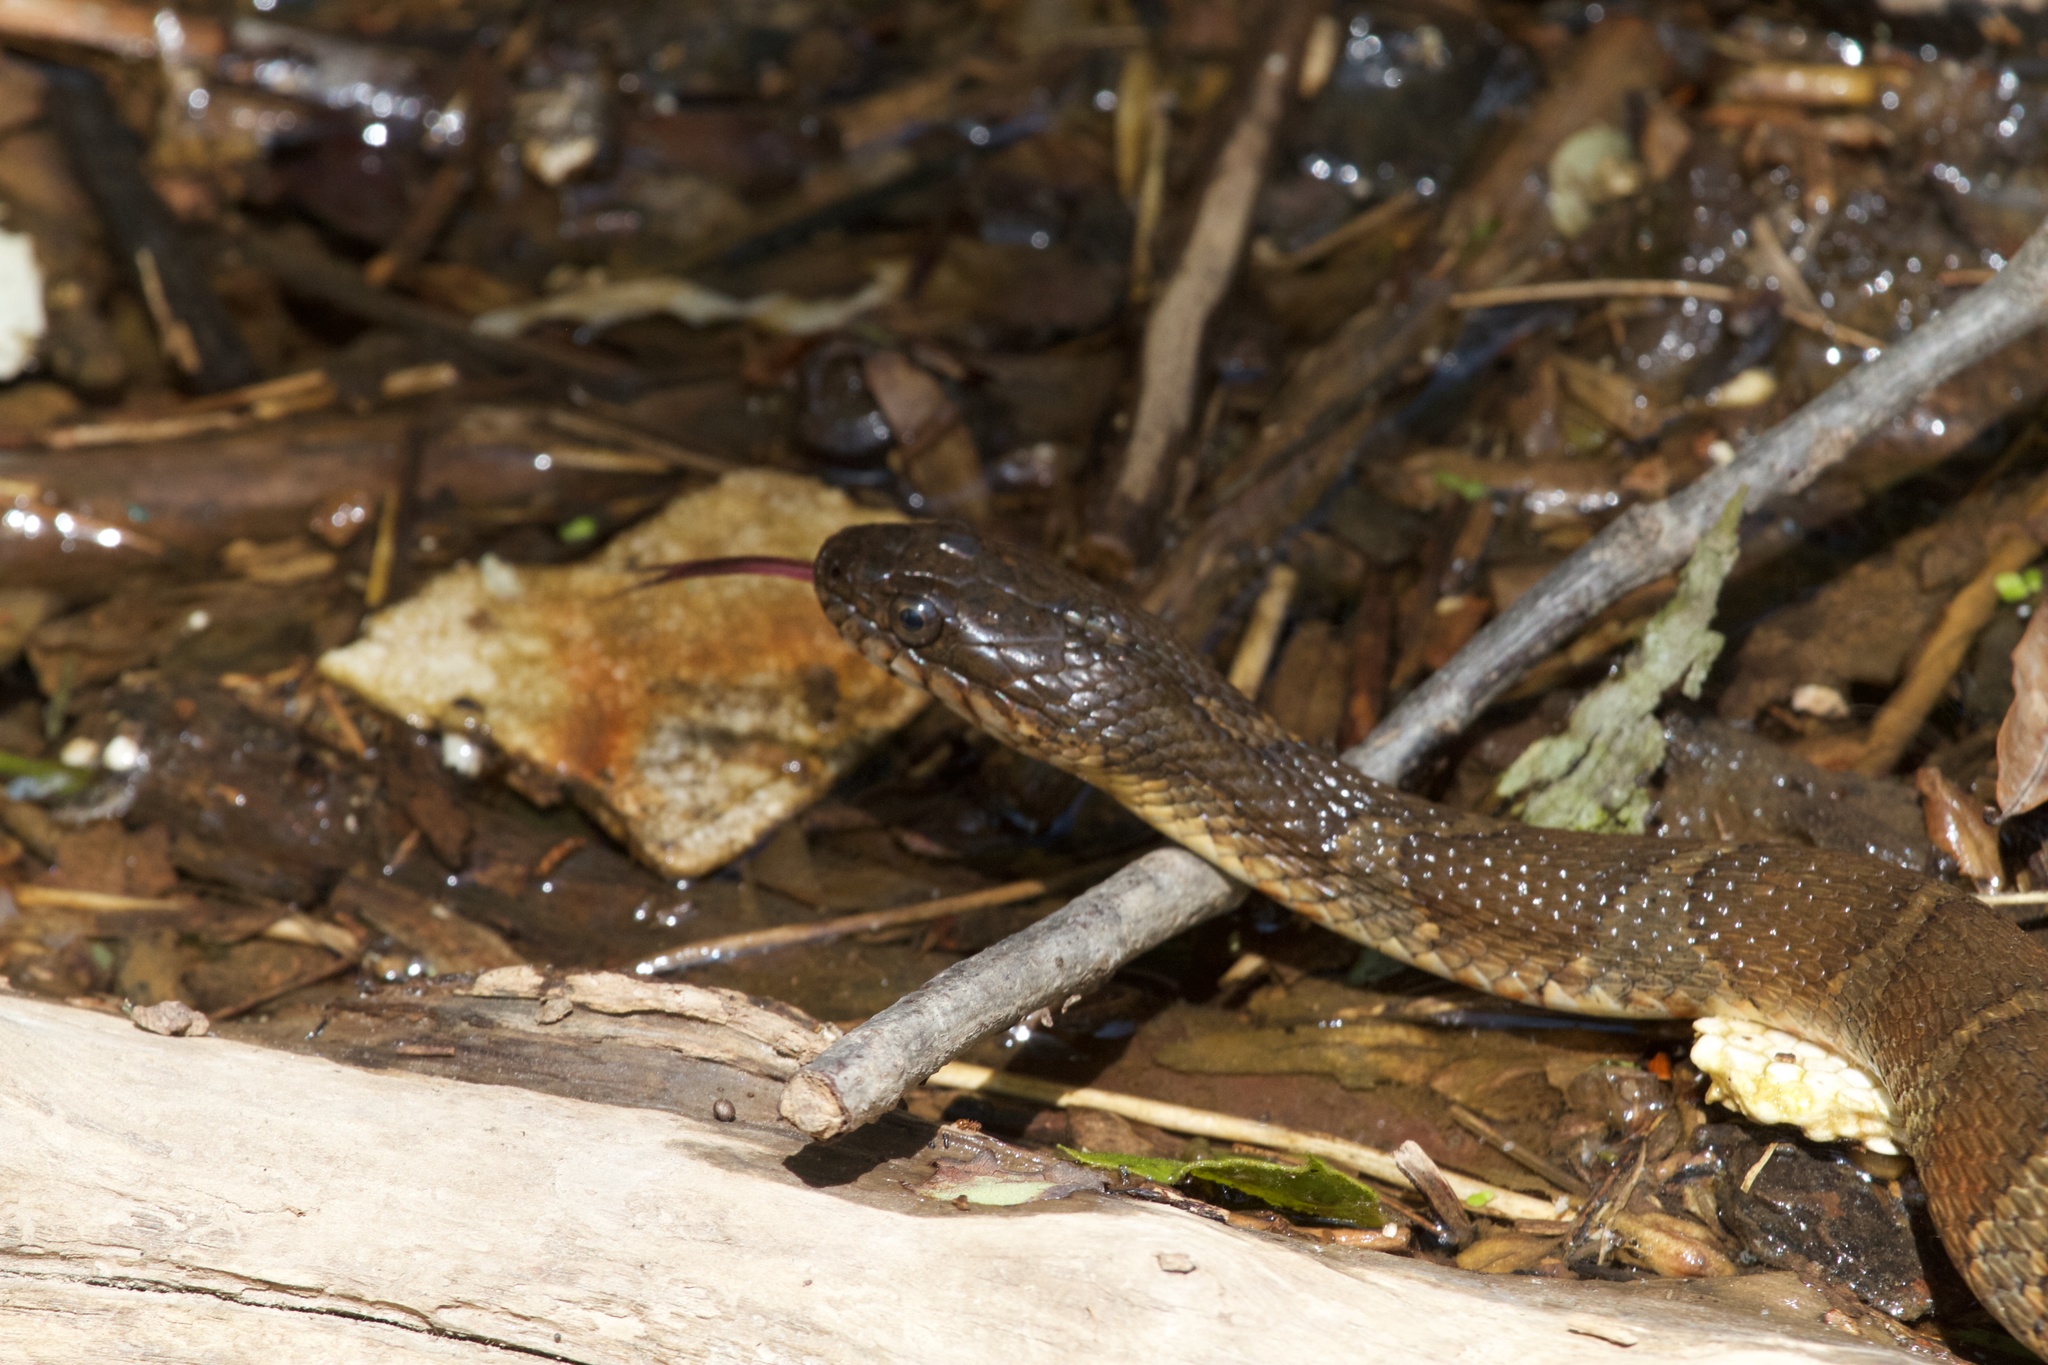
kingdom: Animalia
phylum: Chordata
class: Squamata
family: Colubridae
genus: Nerodia
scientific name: Nerodia sipedon
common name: Northern water snake
